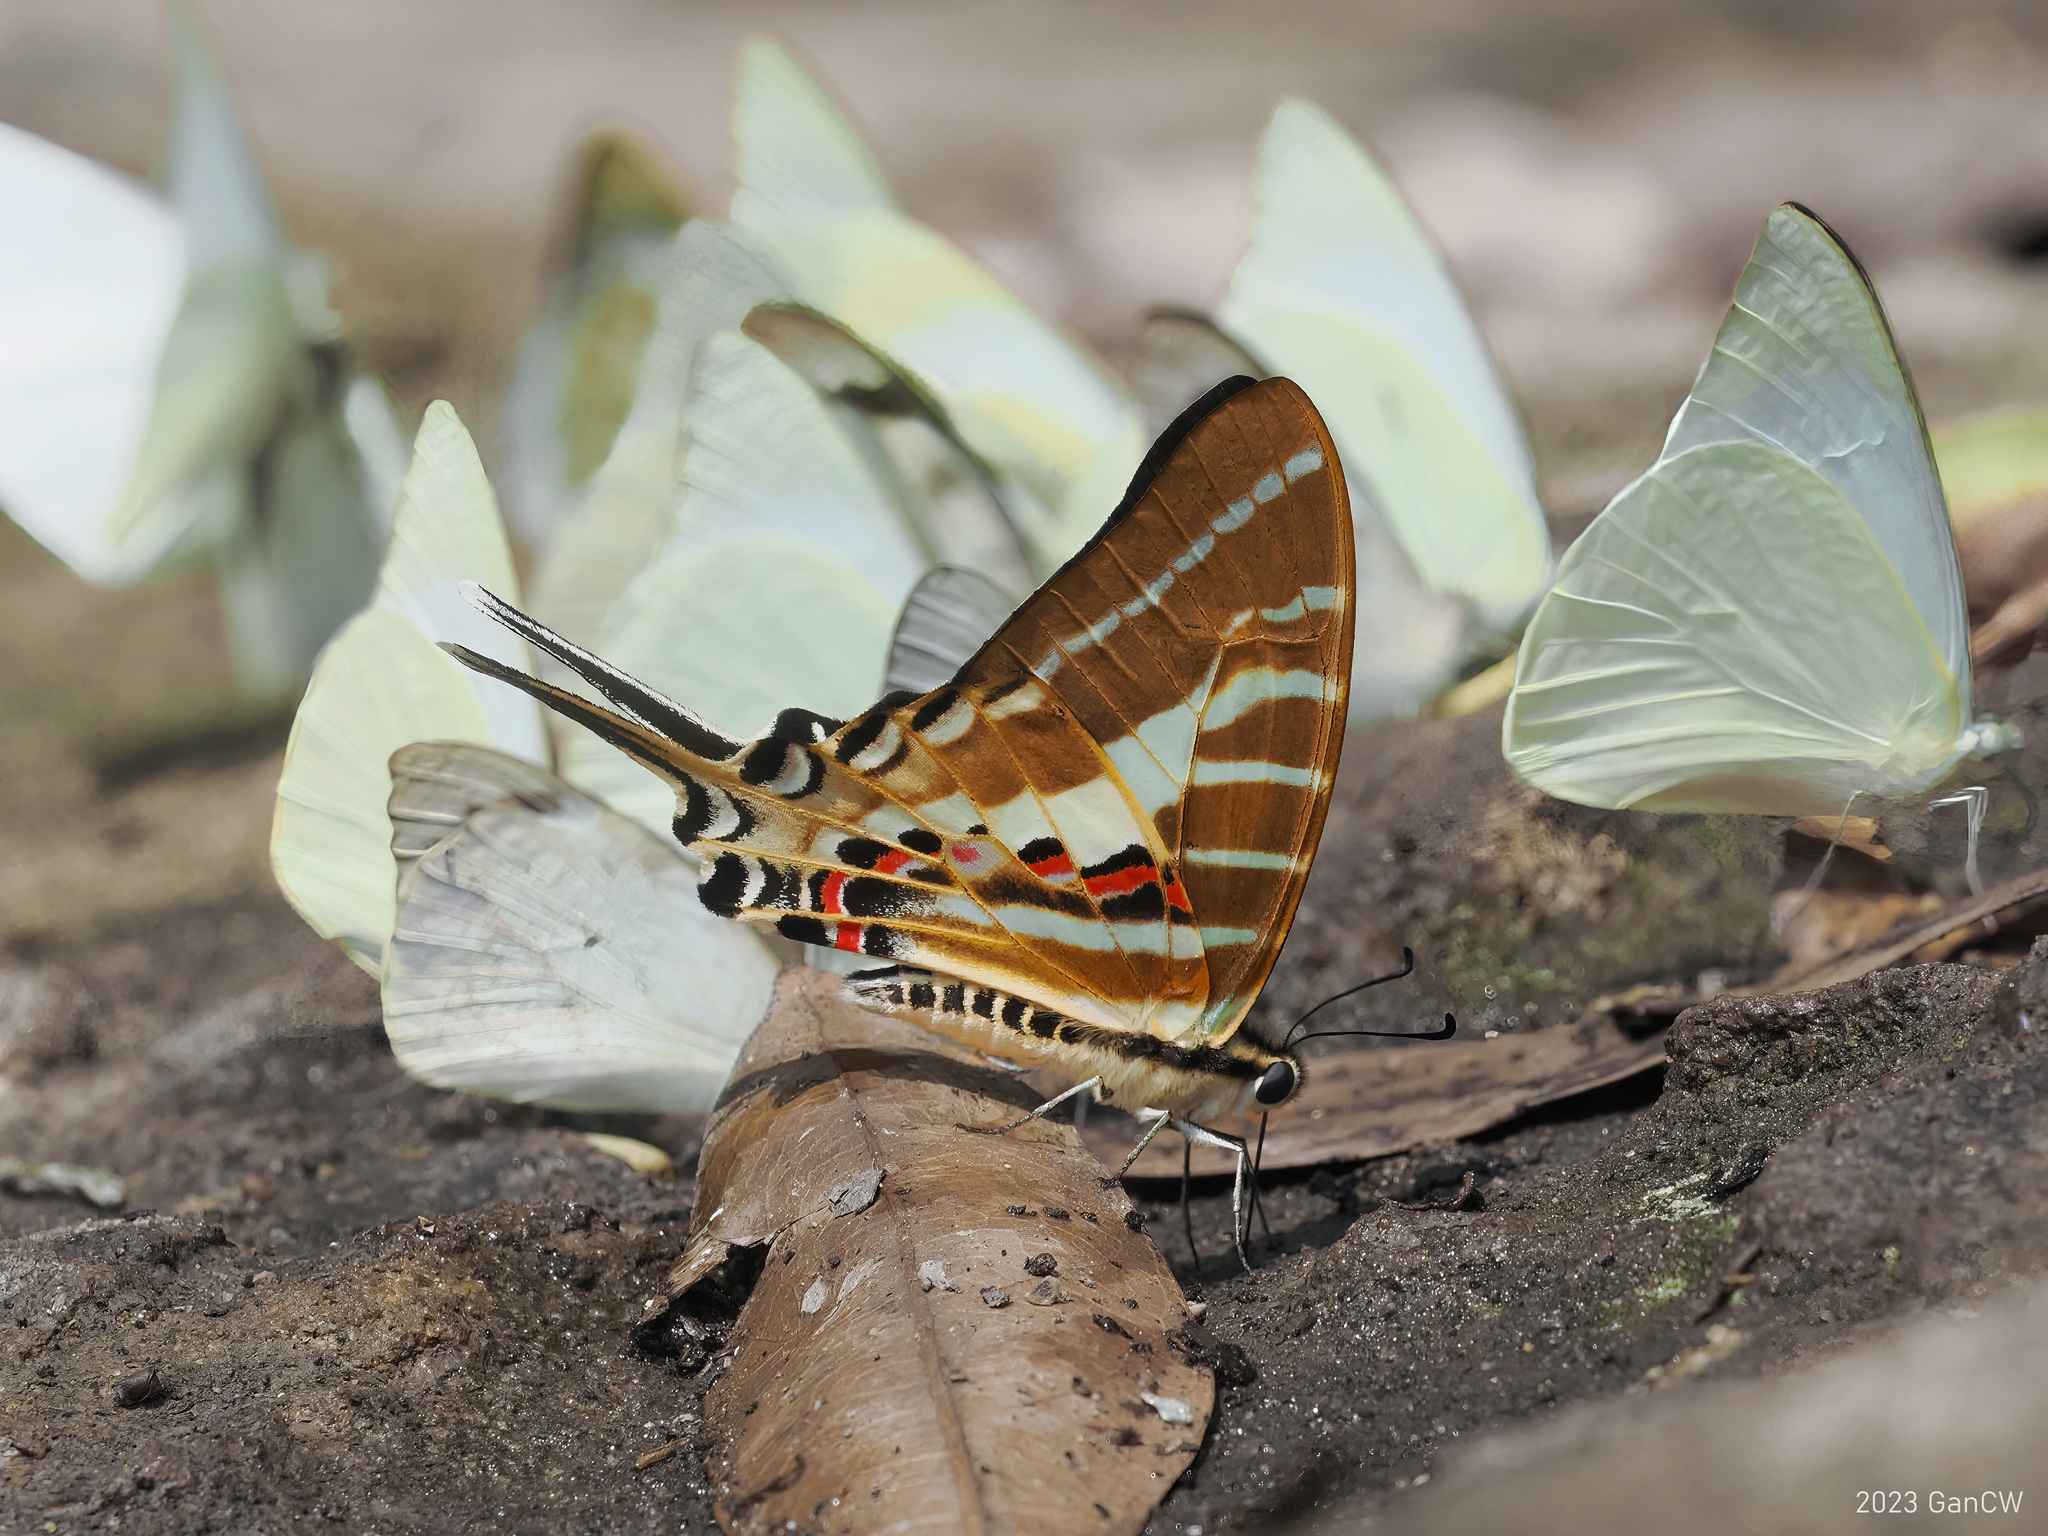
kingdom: Animalia
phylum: Arthropoda
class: Insecta
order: Lepidoptera
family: Papilionidae
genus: Graphium
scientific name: Graphium aristeus
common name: Chain swordtail
